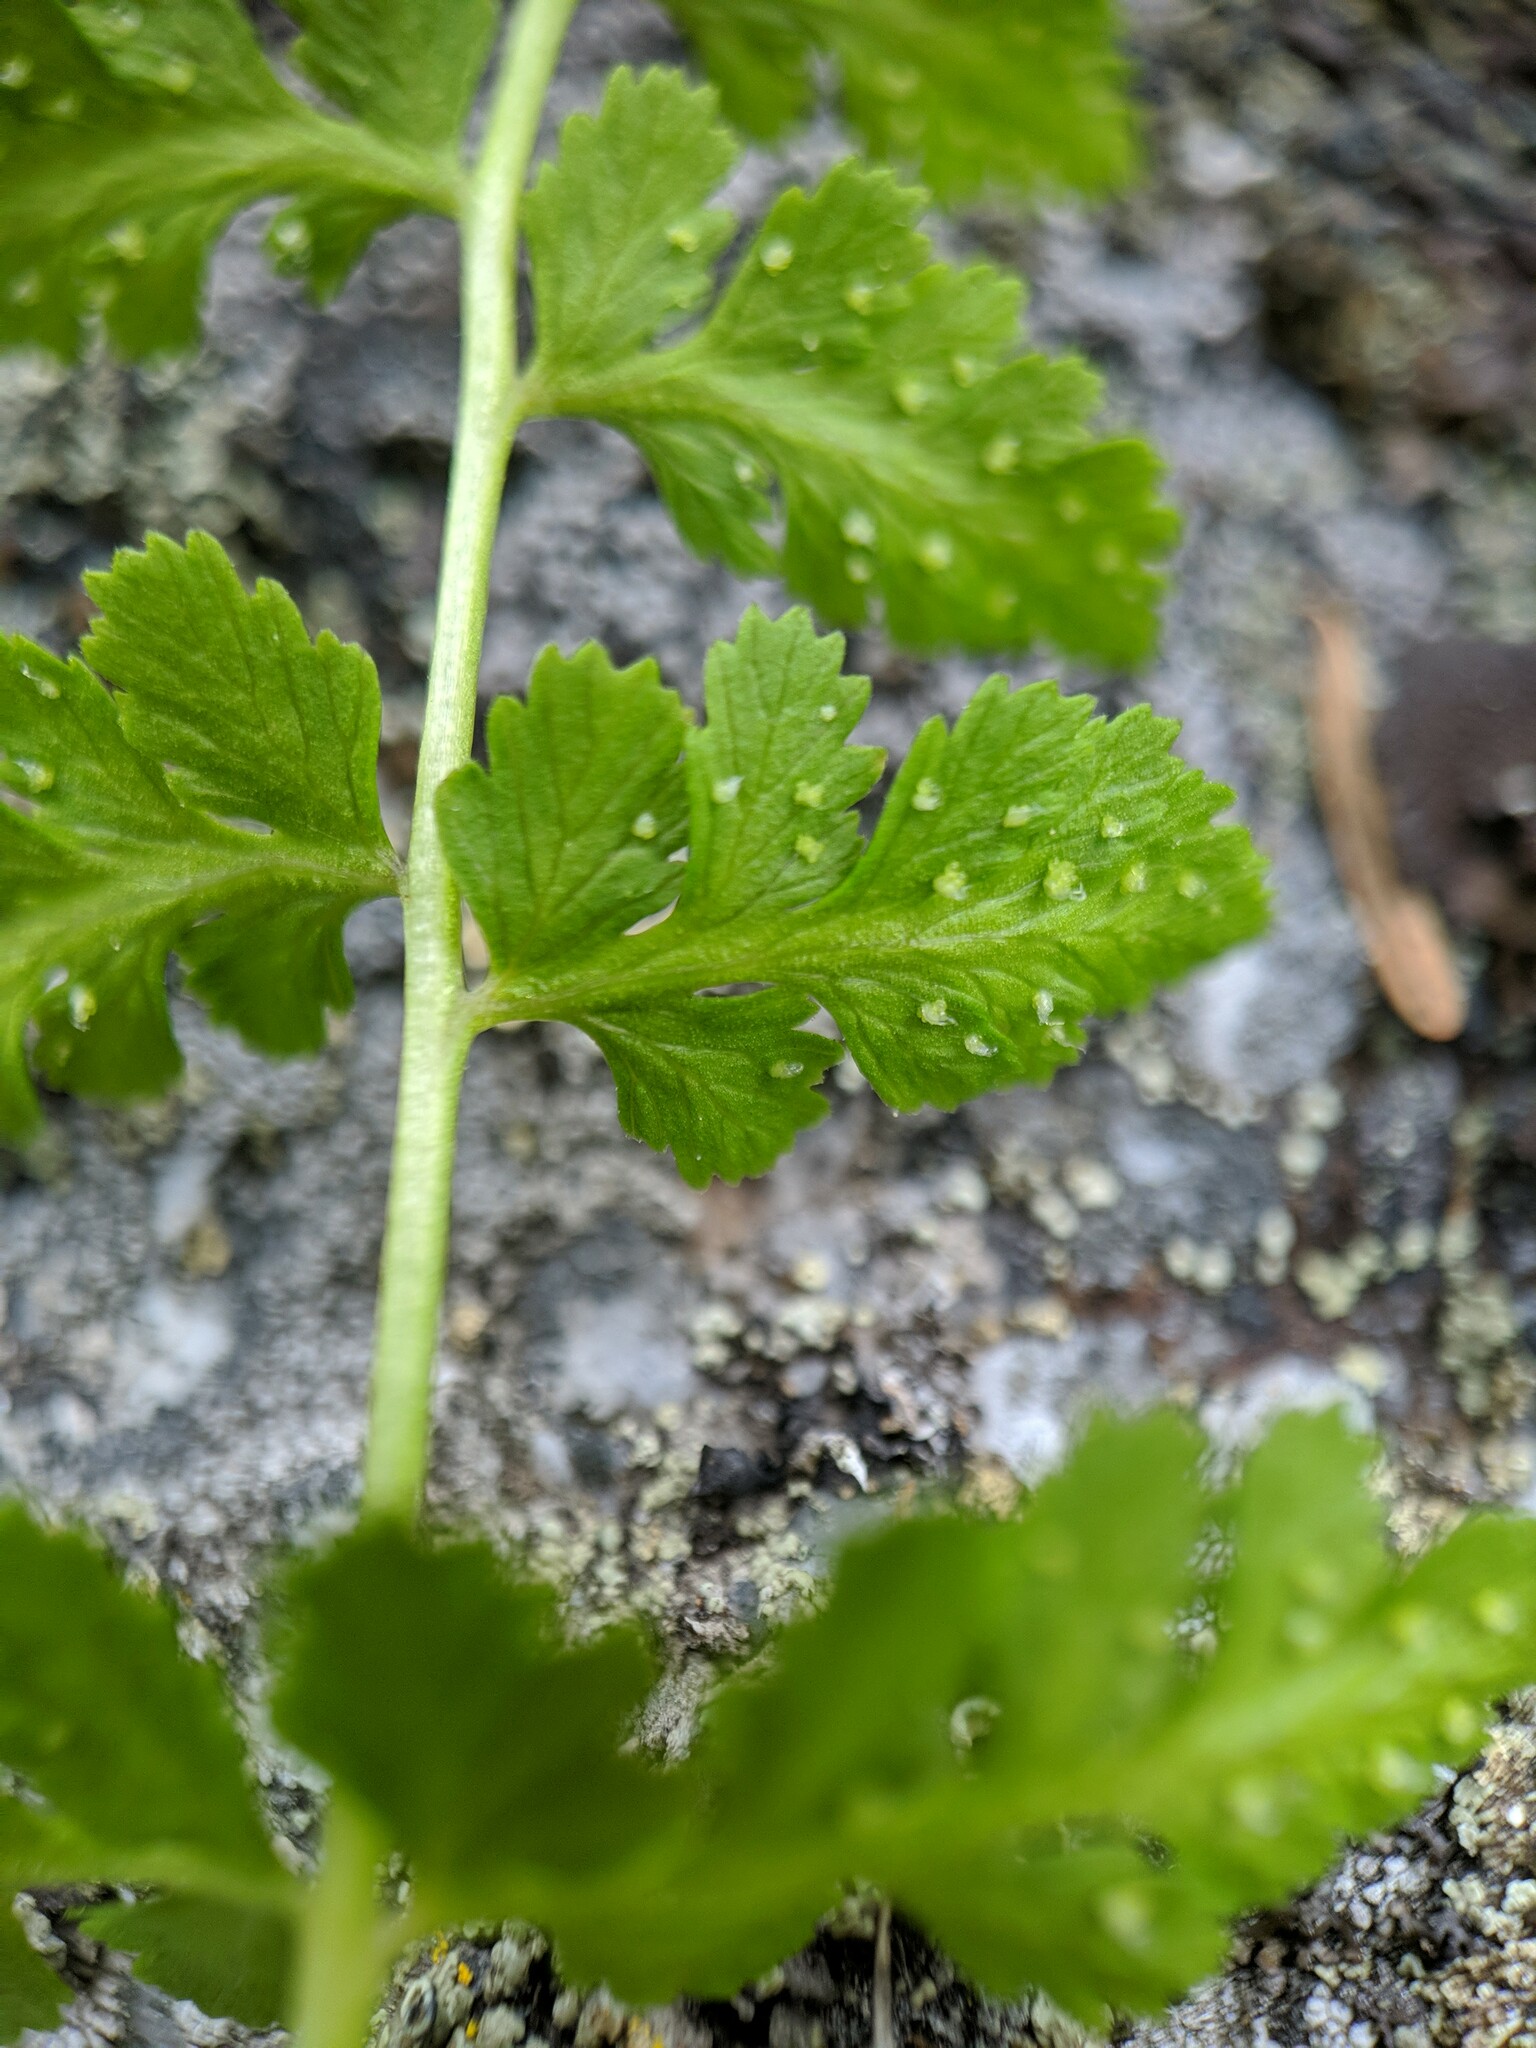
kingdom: Plantae
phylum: Tracheophyta
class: Polypodiopsida
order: Polypodiales
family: Cystopteridaceae
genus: Cystopteris
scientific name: Cystopteris fragilis
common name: Brittle bladder fern
